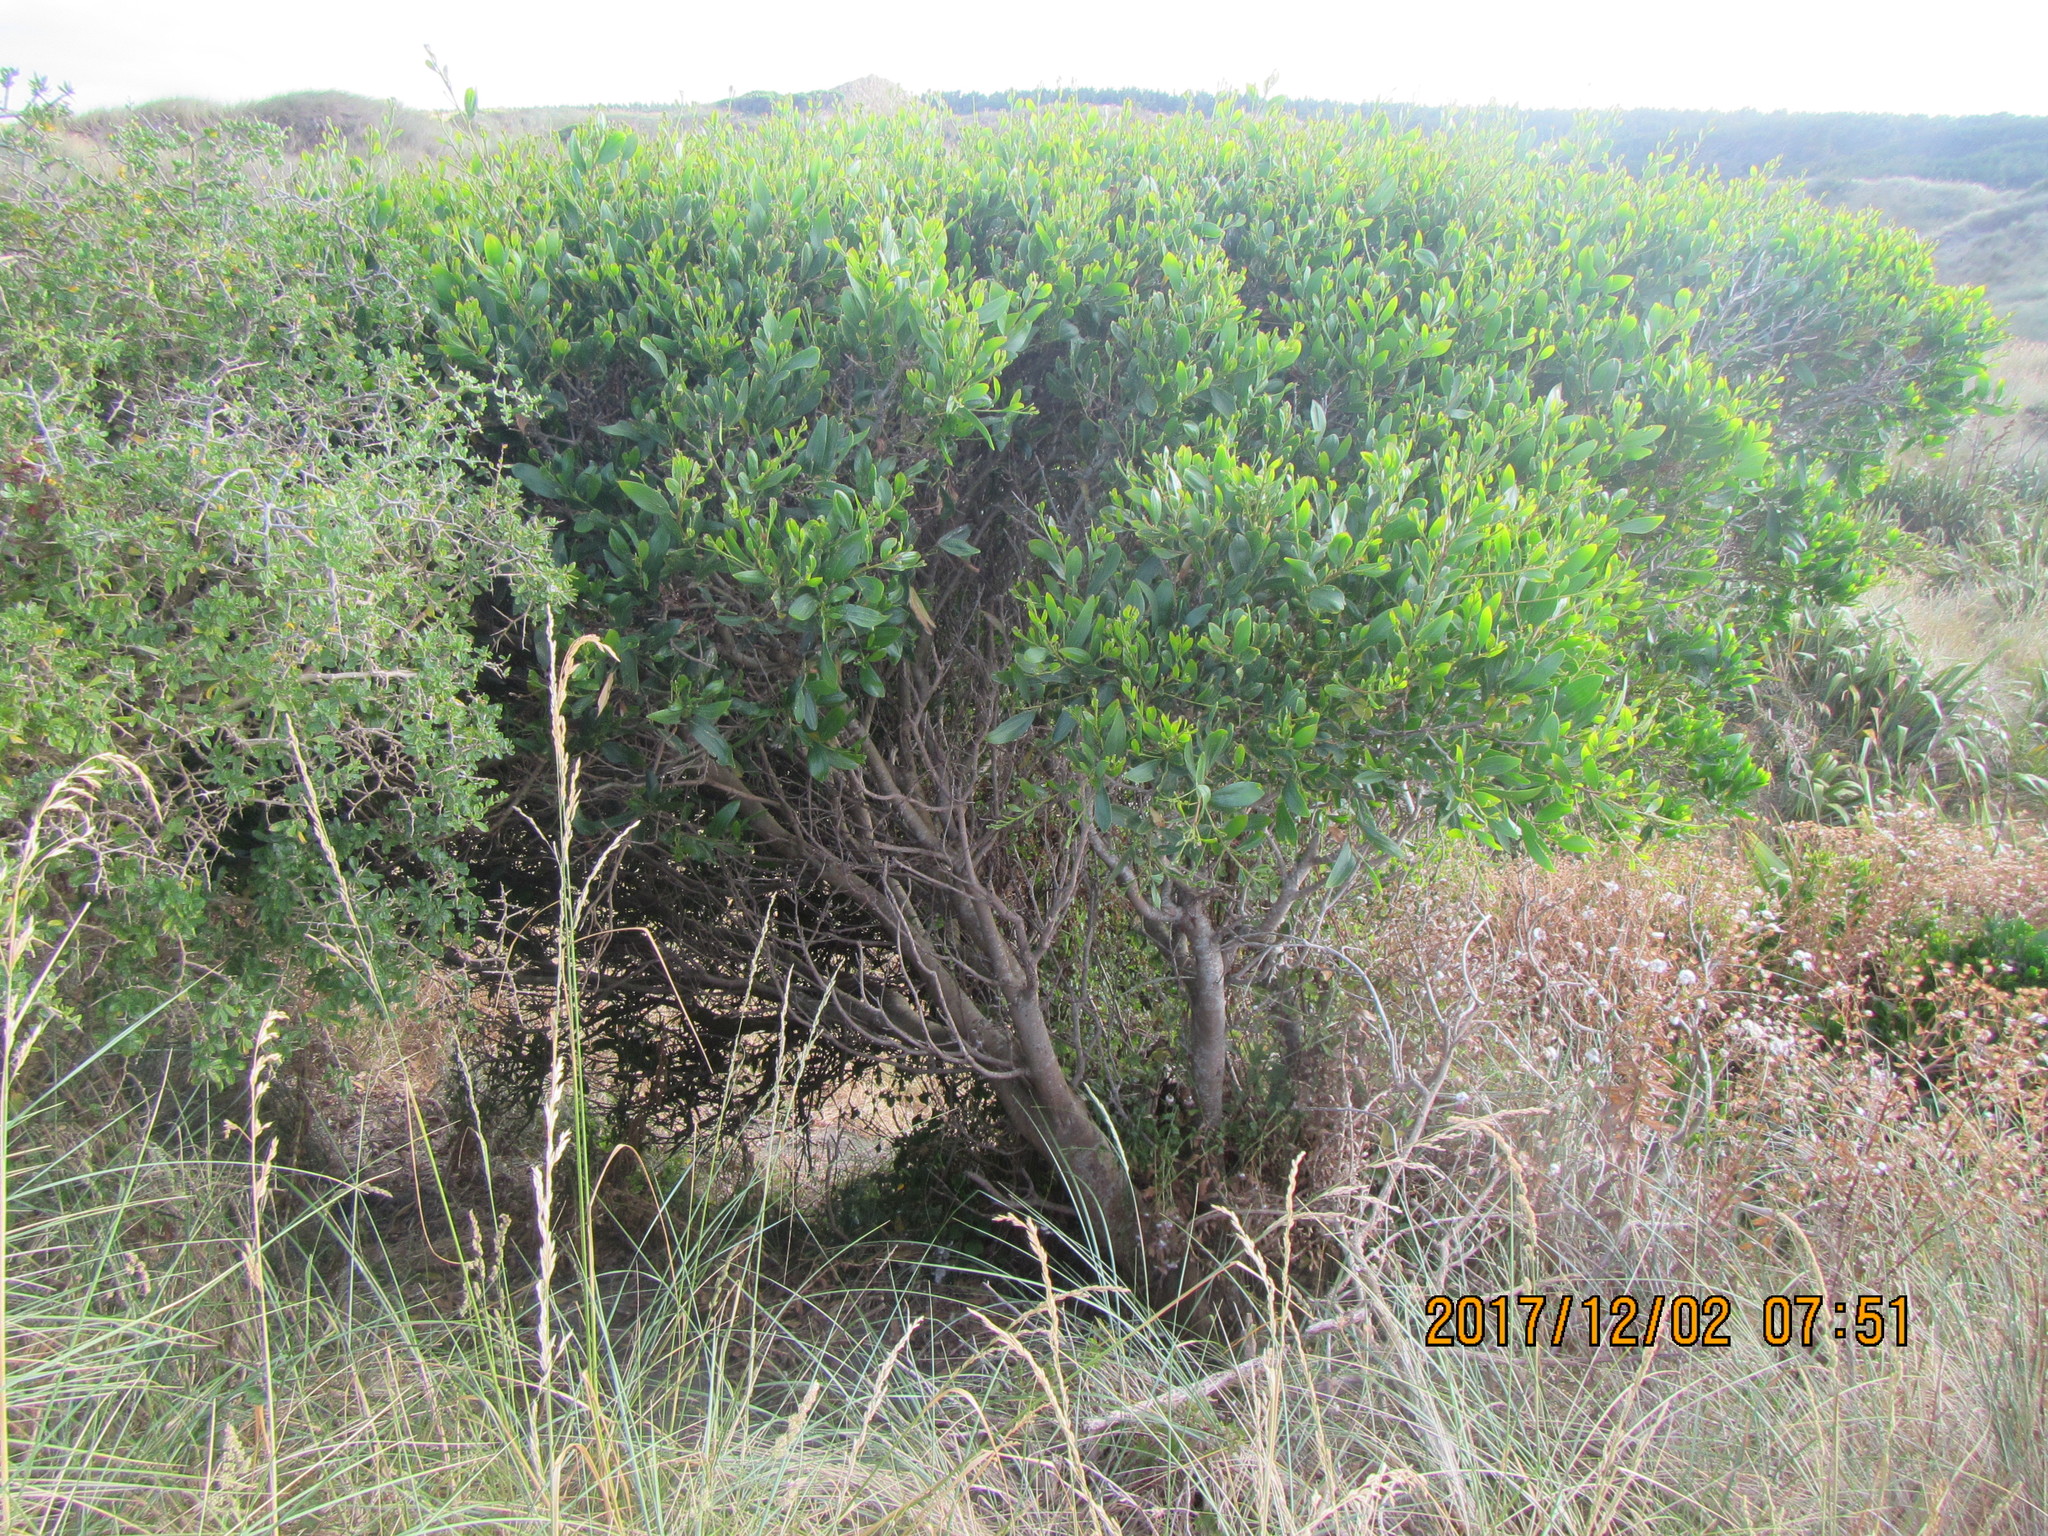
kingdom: Plantae
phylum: Tracheophyta
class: Magnoliopsida
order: Fabales
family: Fabaceae
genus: Acacia
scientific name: Acacia longifolia
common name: Sydney golden wattle
